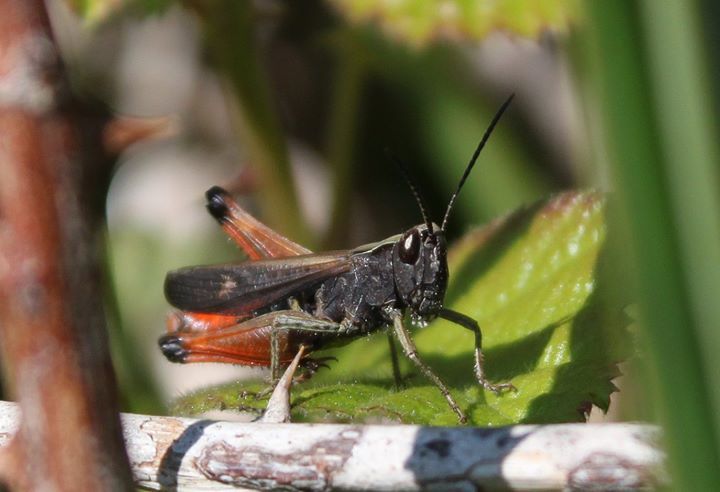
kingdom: Animalia
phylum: Arthropoda
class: Insecta
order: Orthoptera
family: Acrididae
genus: Omocestus
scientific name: Omocestus rufipes
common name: Woodland grasshopper
